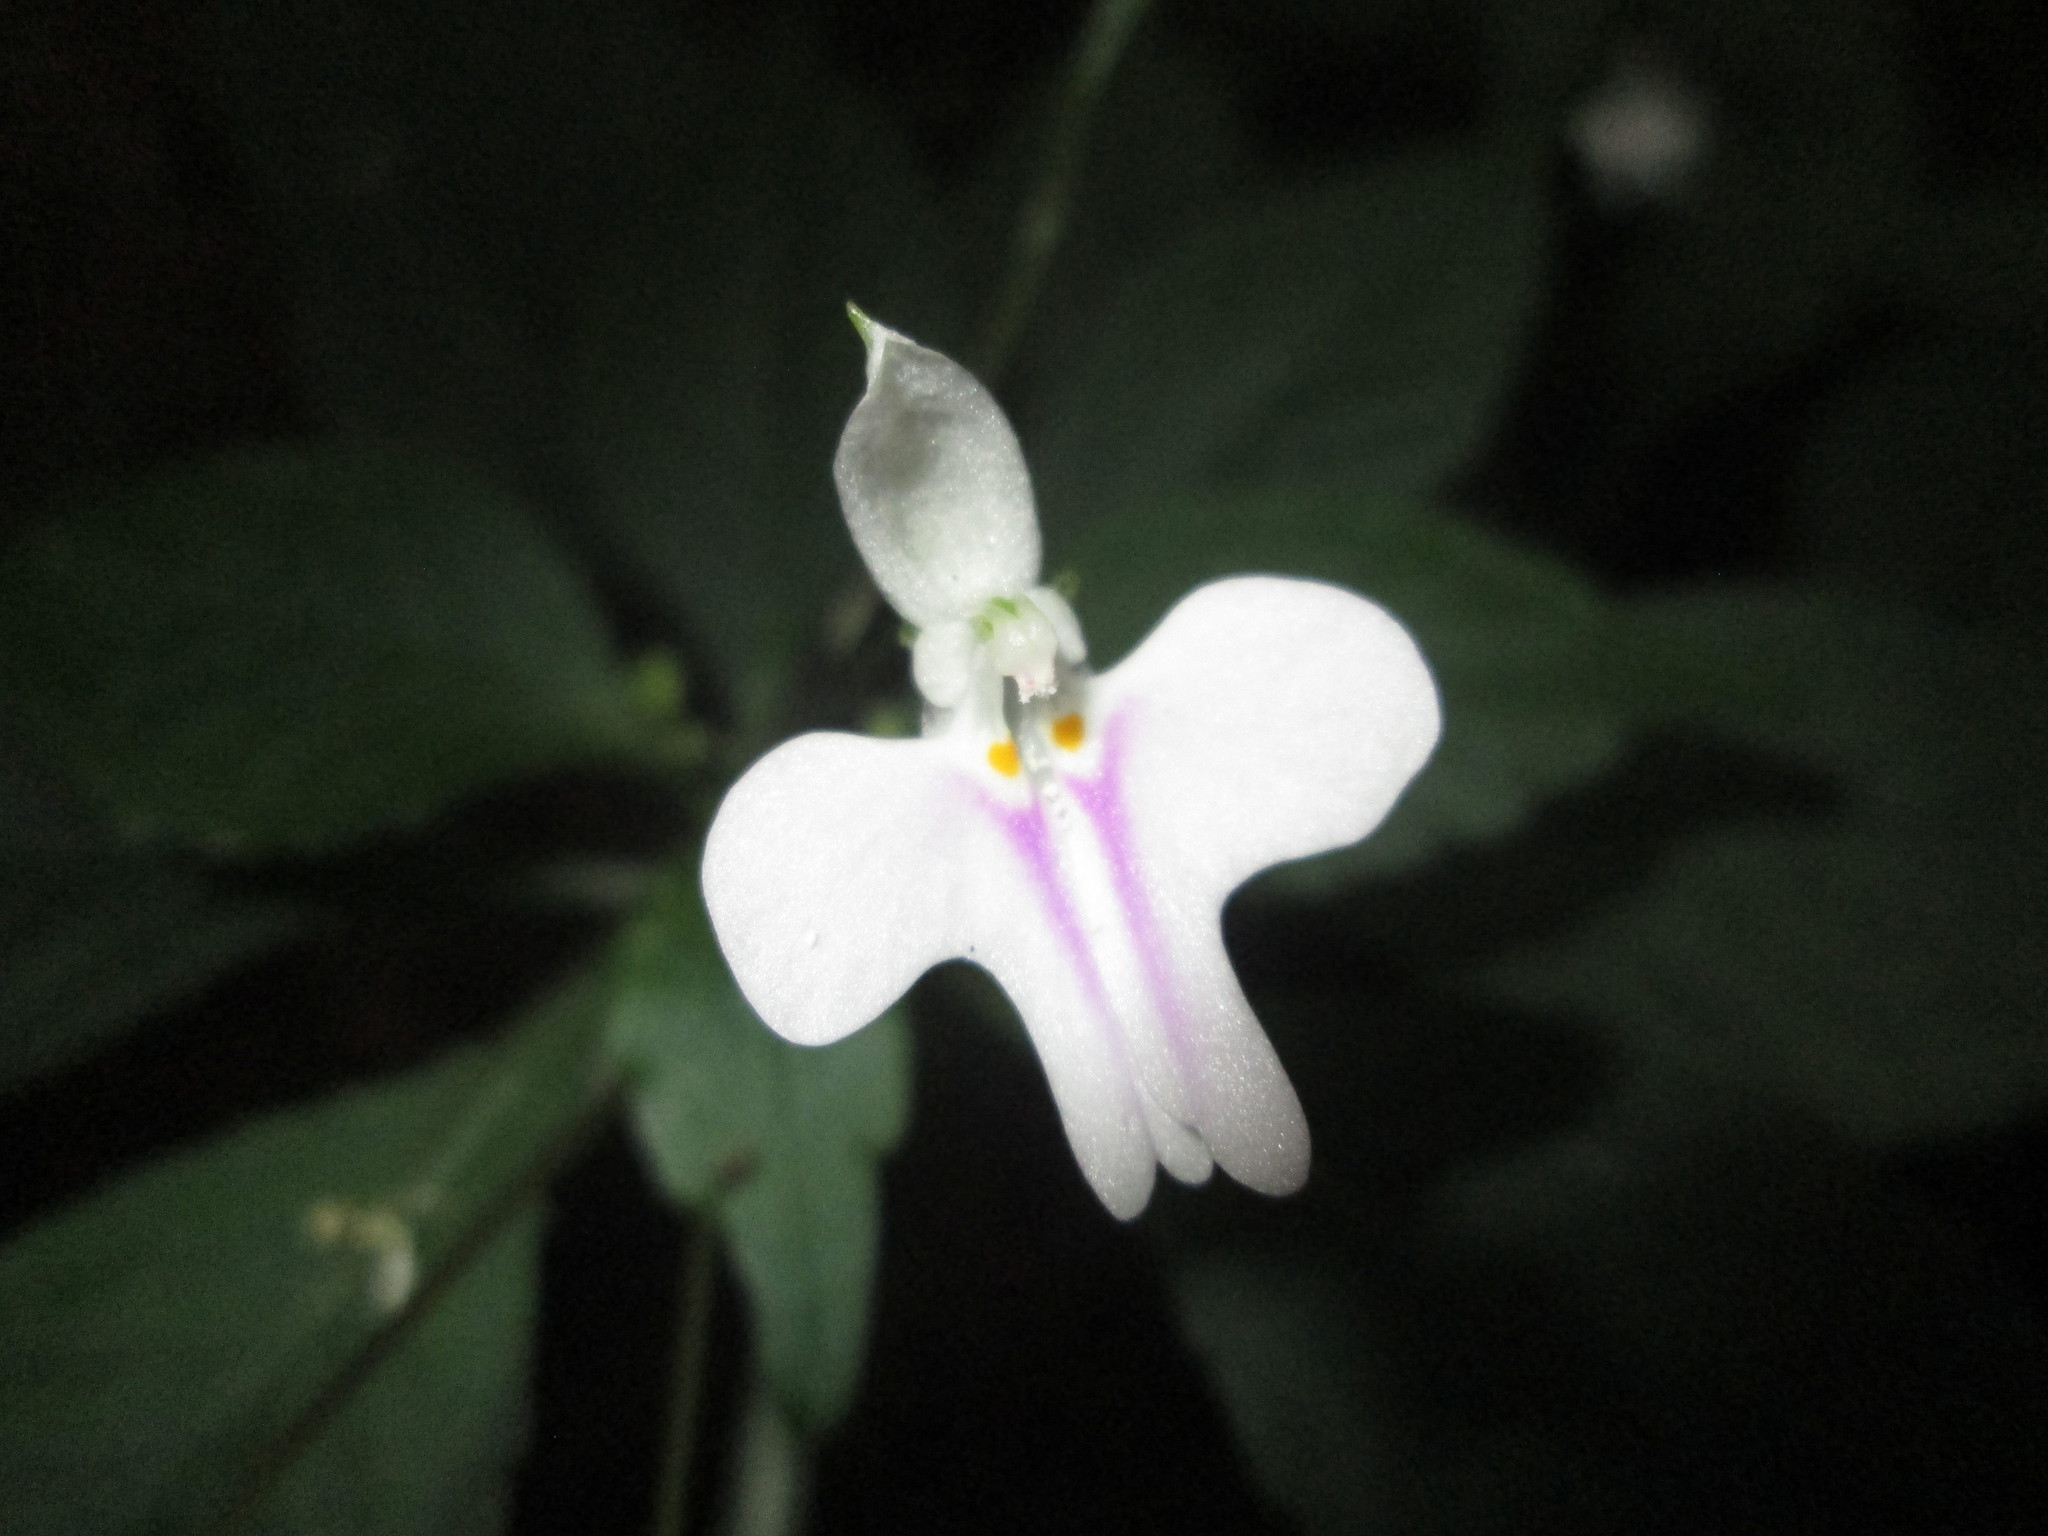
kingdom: Plantae
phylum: Tracheophyta
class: Magnoliopsida
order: Ericales
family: Balsaminaceae
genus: Impatiens
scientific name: Impatiens hochstetteri
